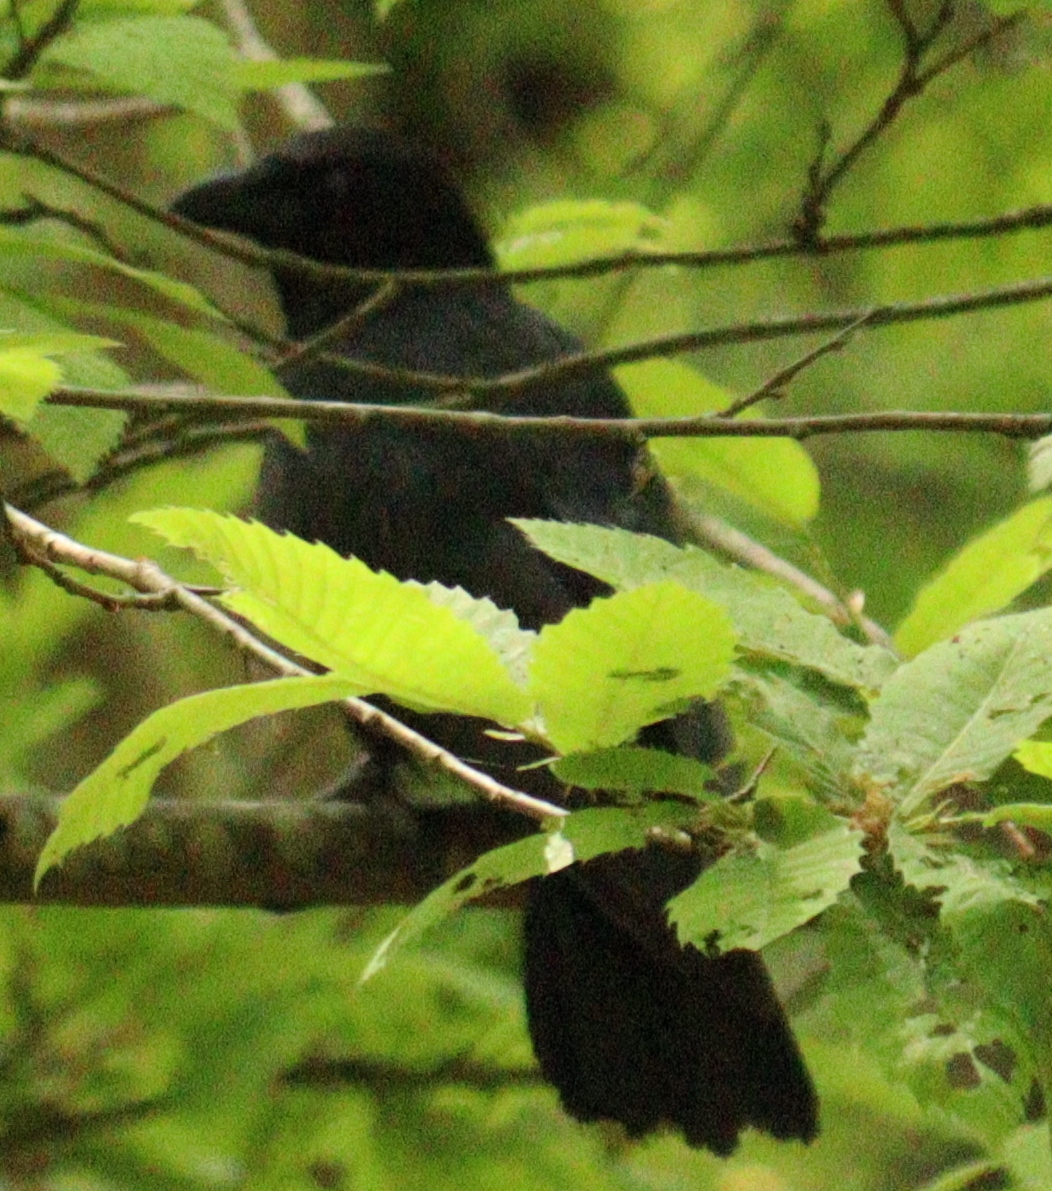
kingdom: Animalia
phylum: Chordata
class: Aves
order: Passeriformes
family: Corvidae
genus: Corvus
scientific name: Corvus corone
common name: Carrion crow
